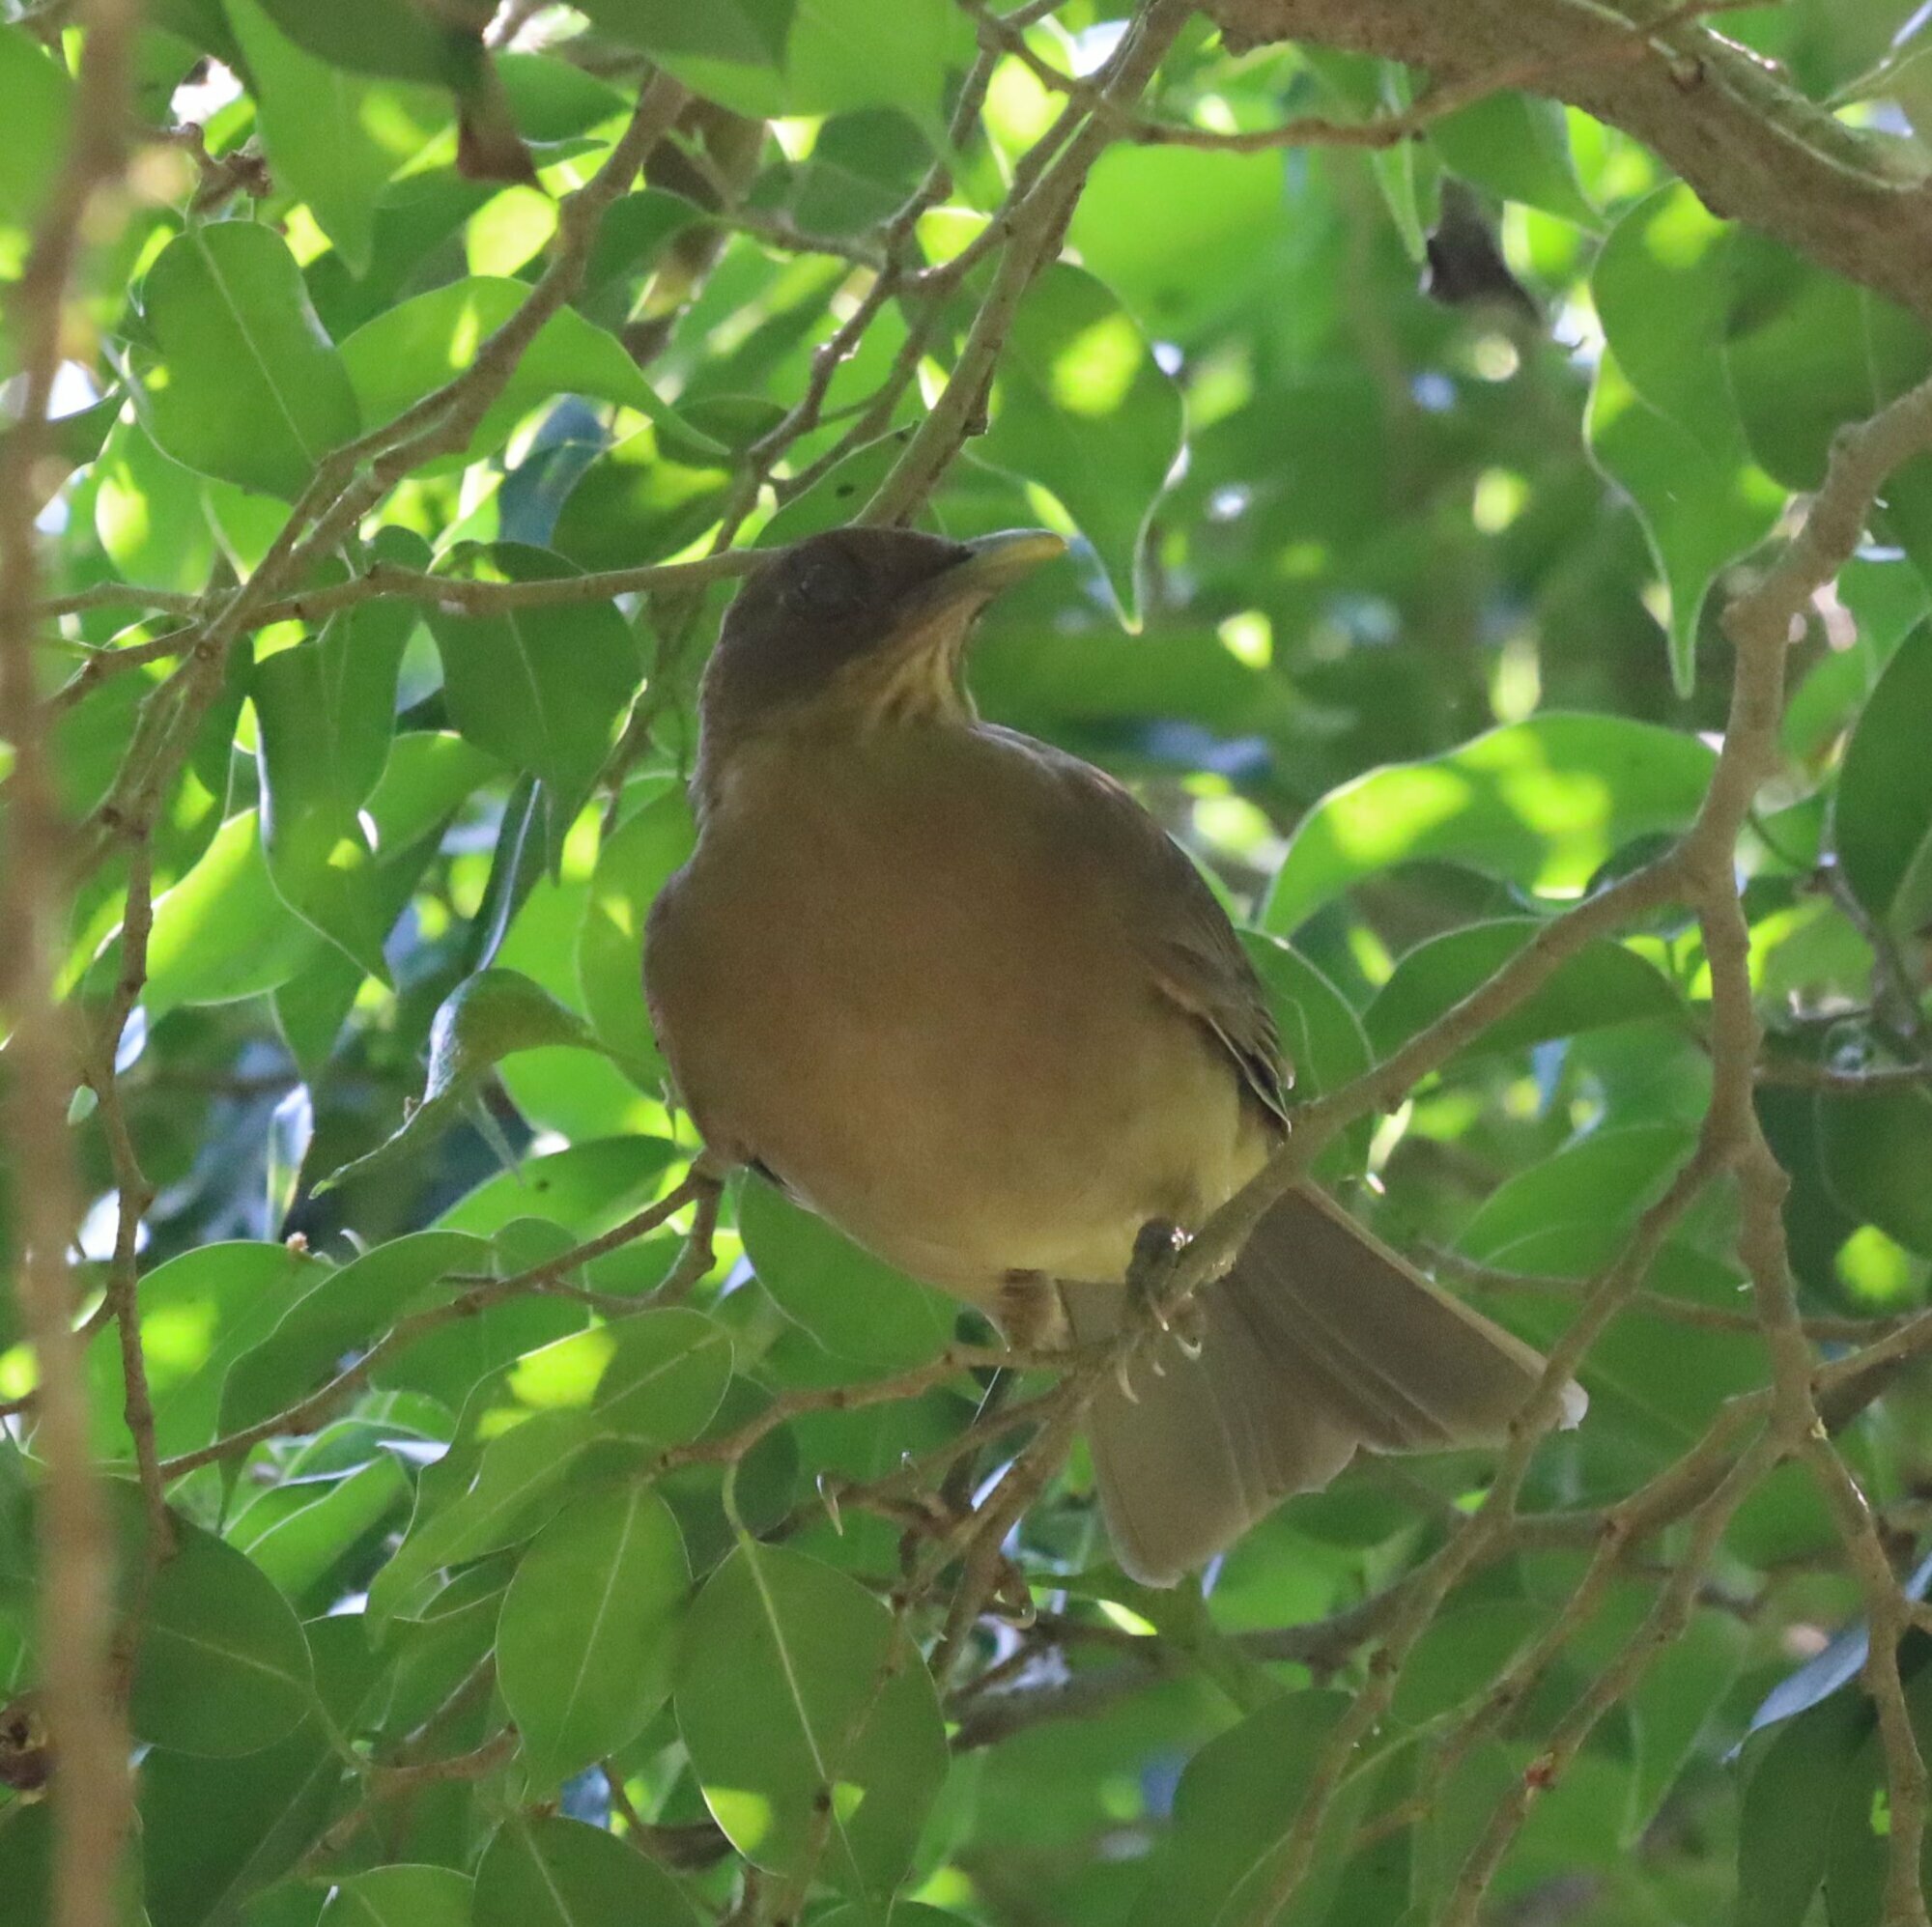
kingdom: Animalia
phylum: Chordata
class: Aves
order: Passeriformes
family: Turdidae
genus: Turdus
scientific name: Turdus grayi
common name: Clay-colored thrush
